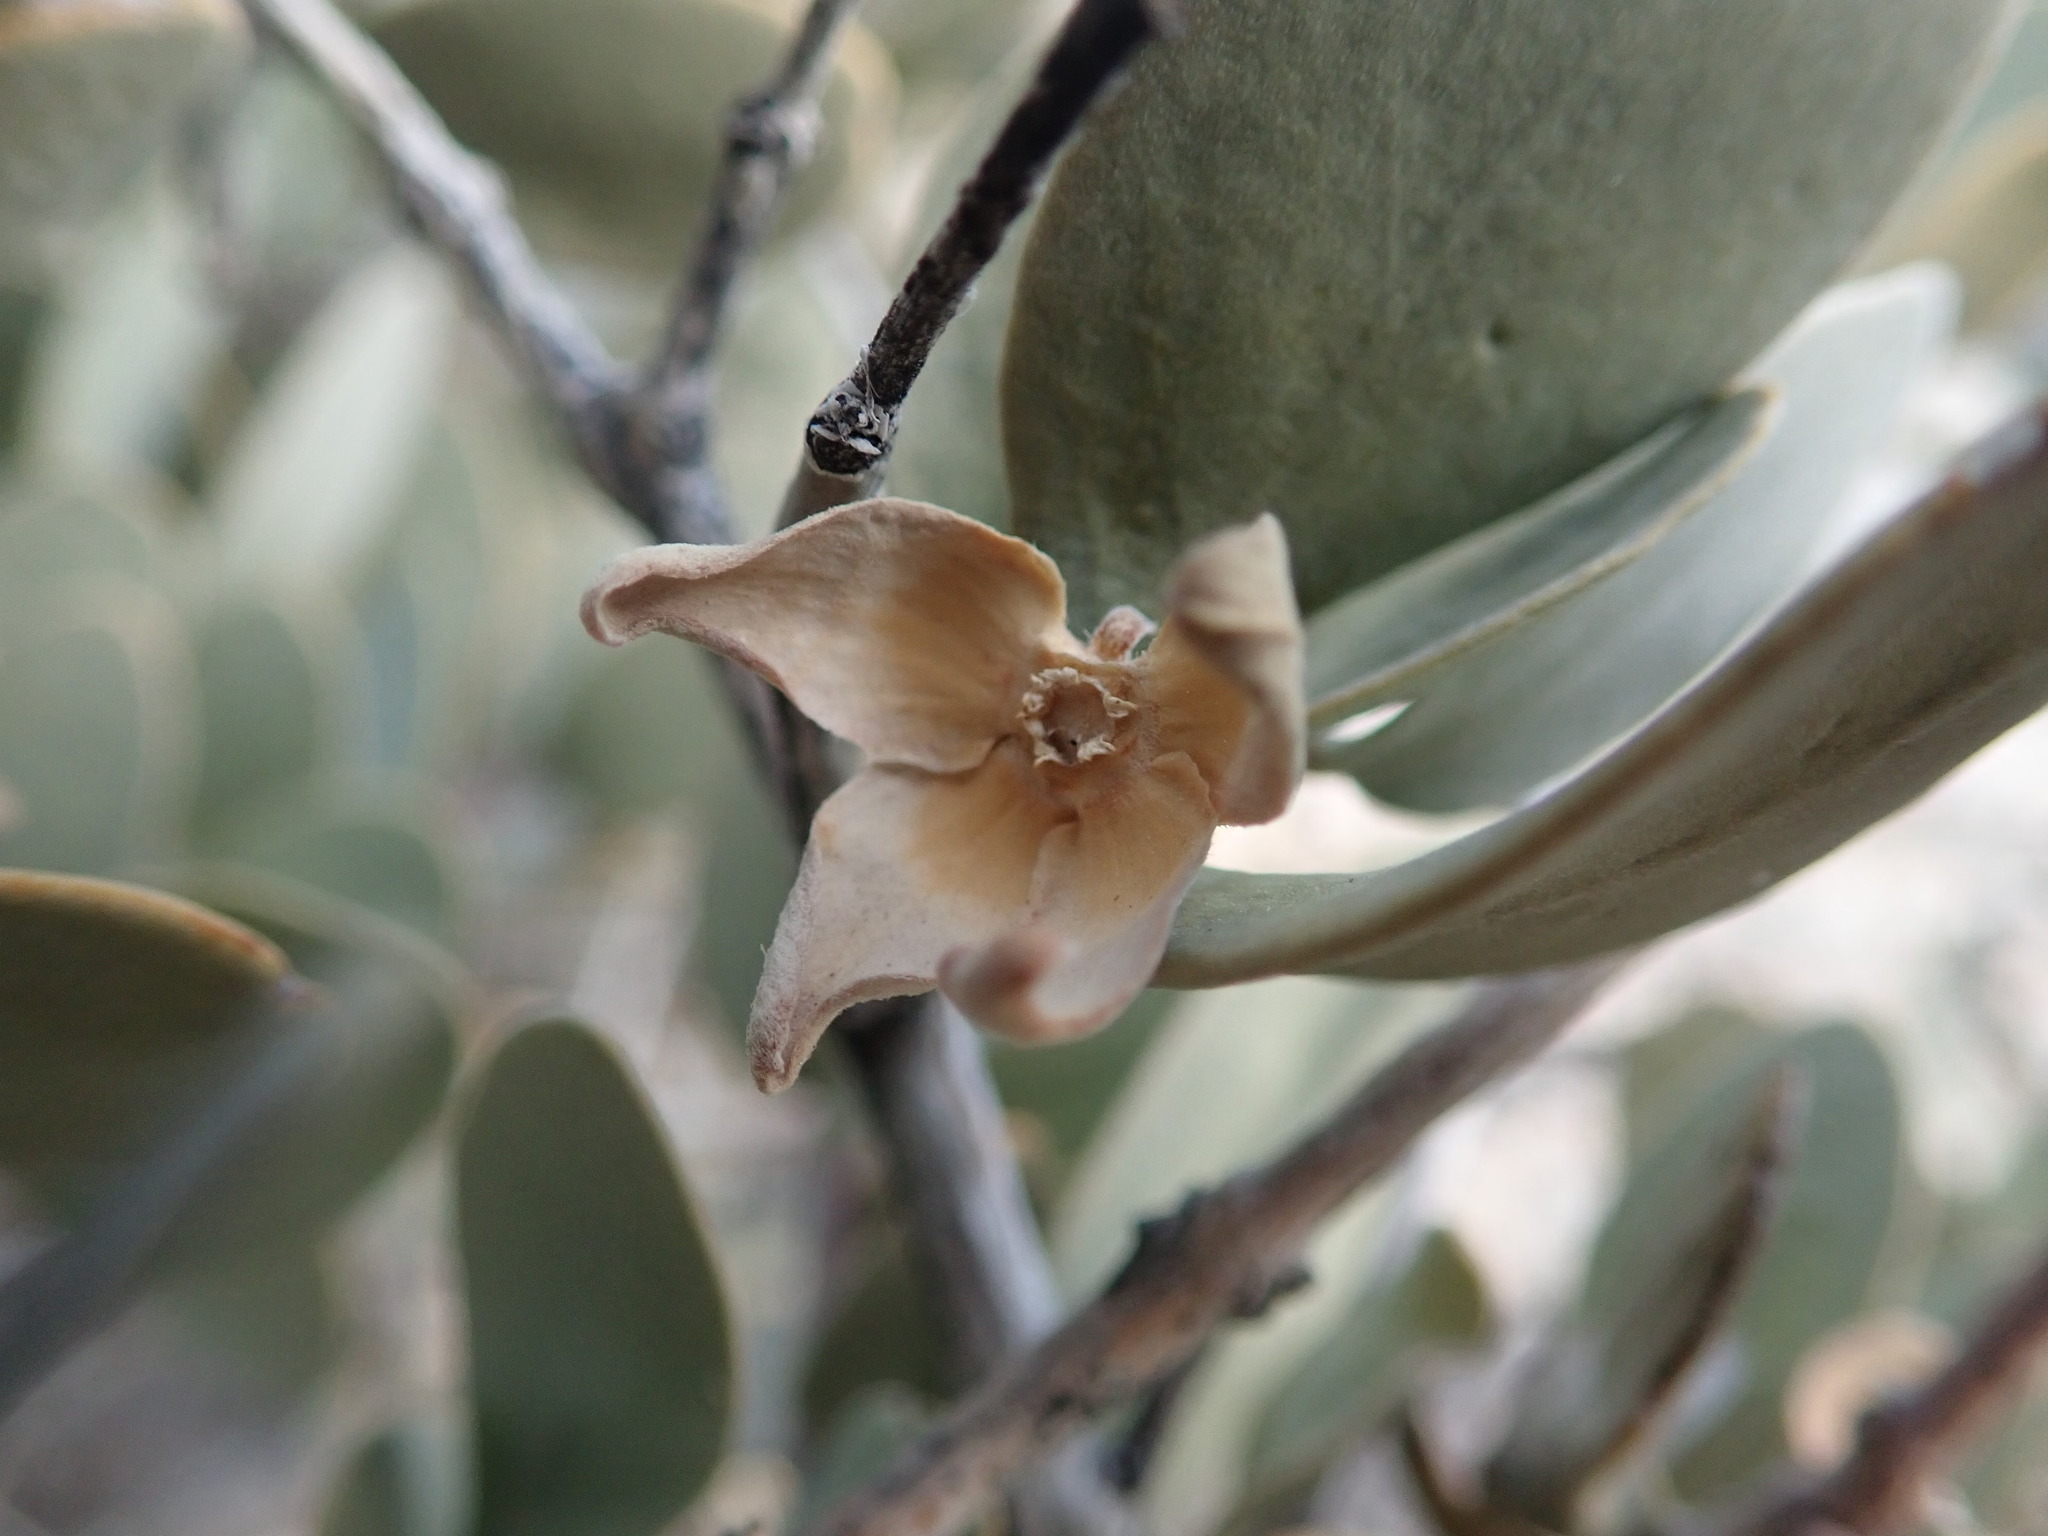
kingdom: Plantae
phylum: Tracheophyta
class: Magnoliopsida
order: Caryophyllales
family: Simmondsiaceae
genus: Simmondsia
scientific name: Simmondsia chinensis
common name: Jojoba
